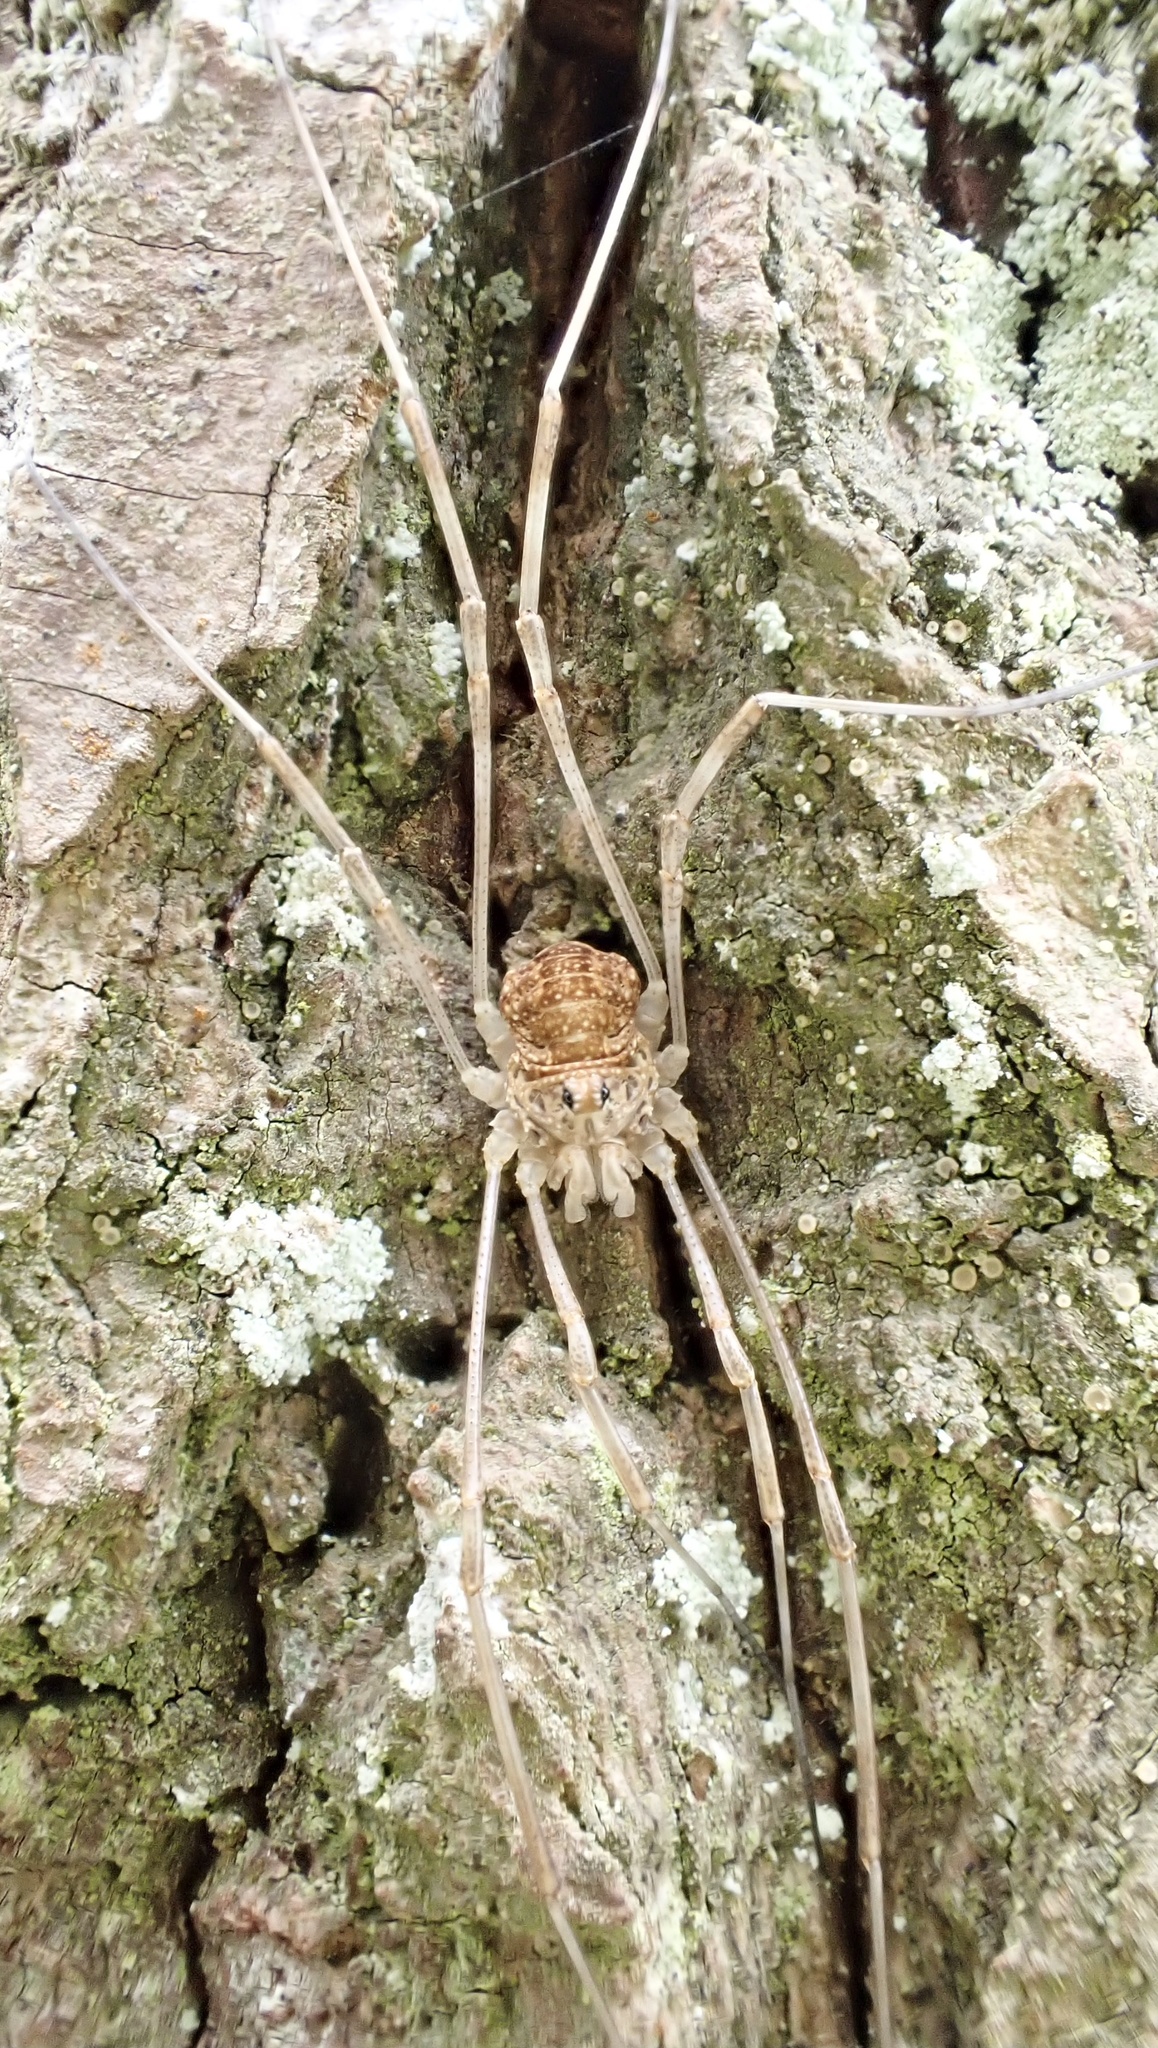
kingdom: Animalia
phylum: Arthropoda
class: Arachnida
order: Opiliones
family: Phalangiidae
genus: Rilaena
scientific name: Rilaena triangularis
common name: Spring harvestman
